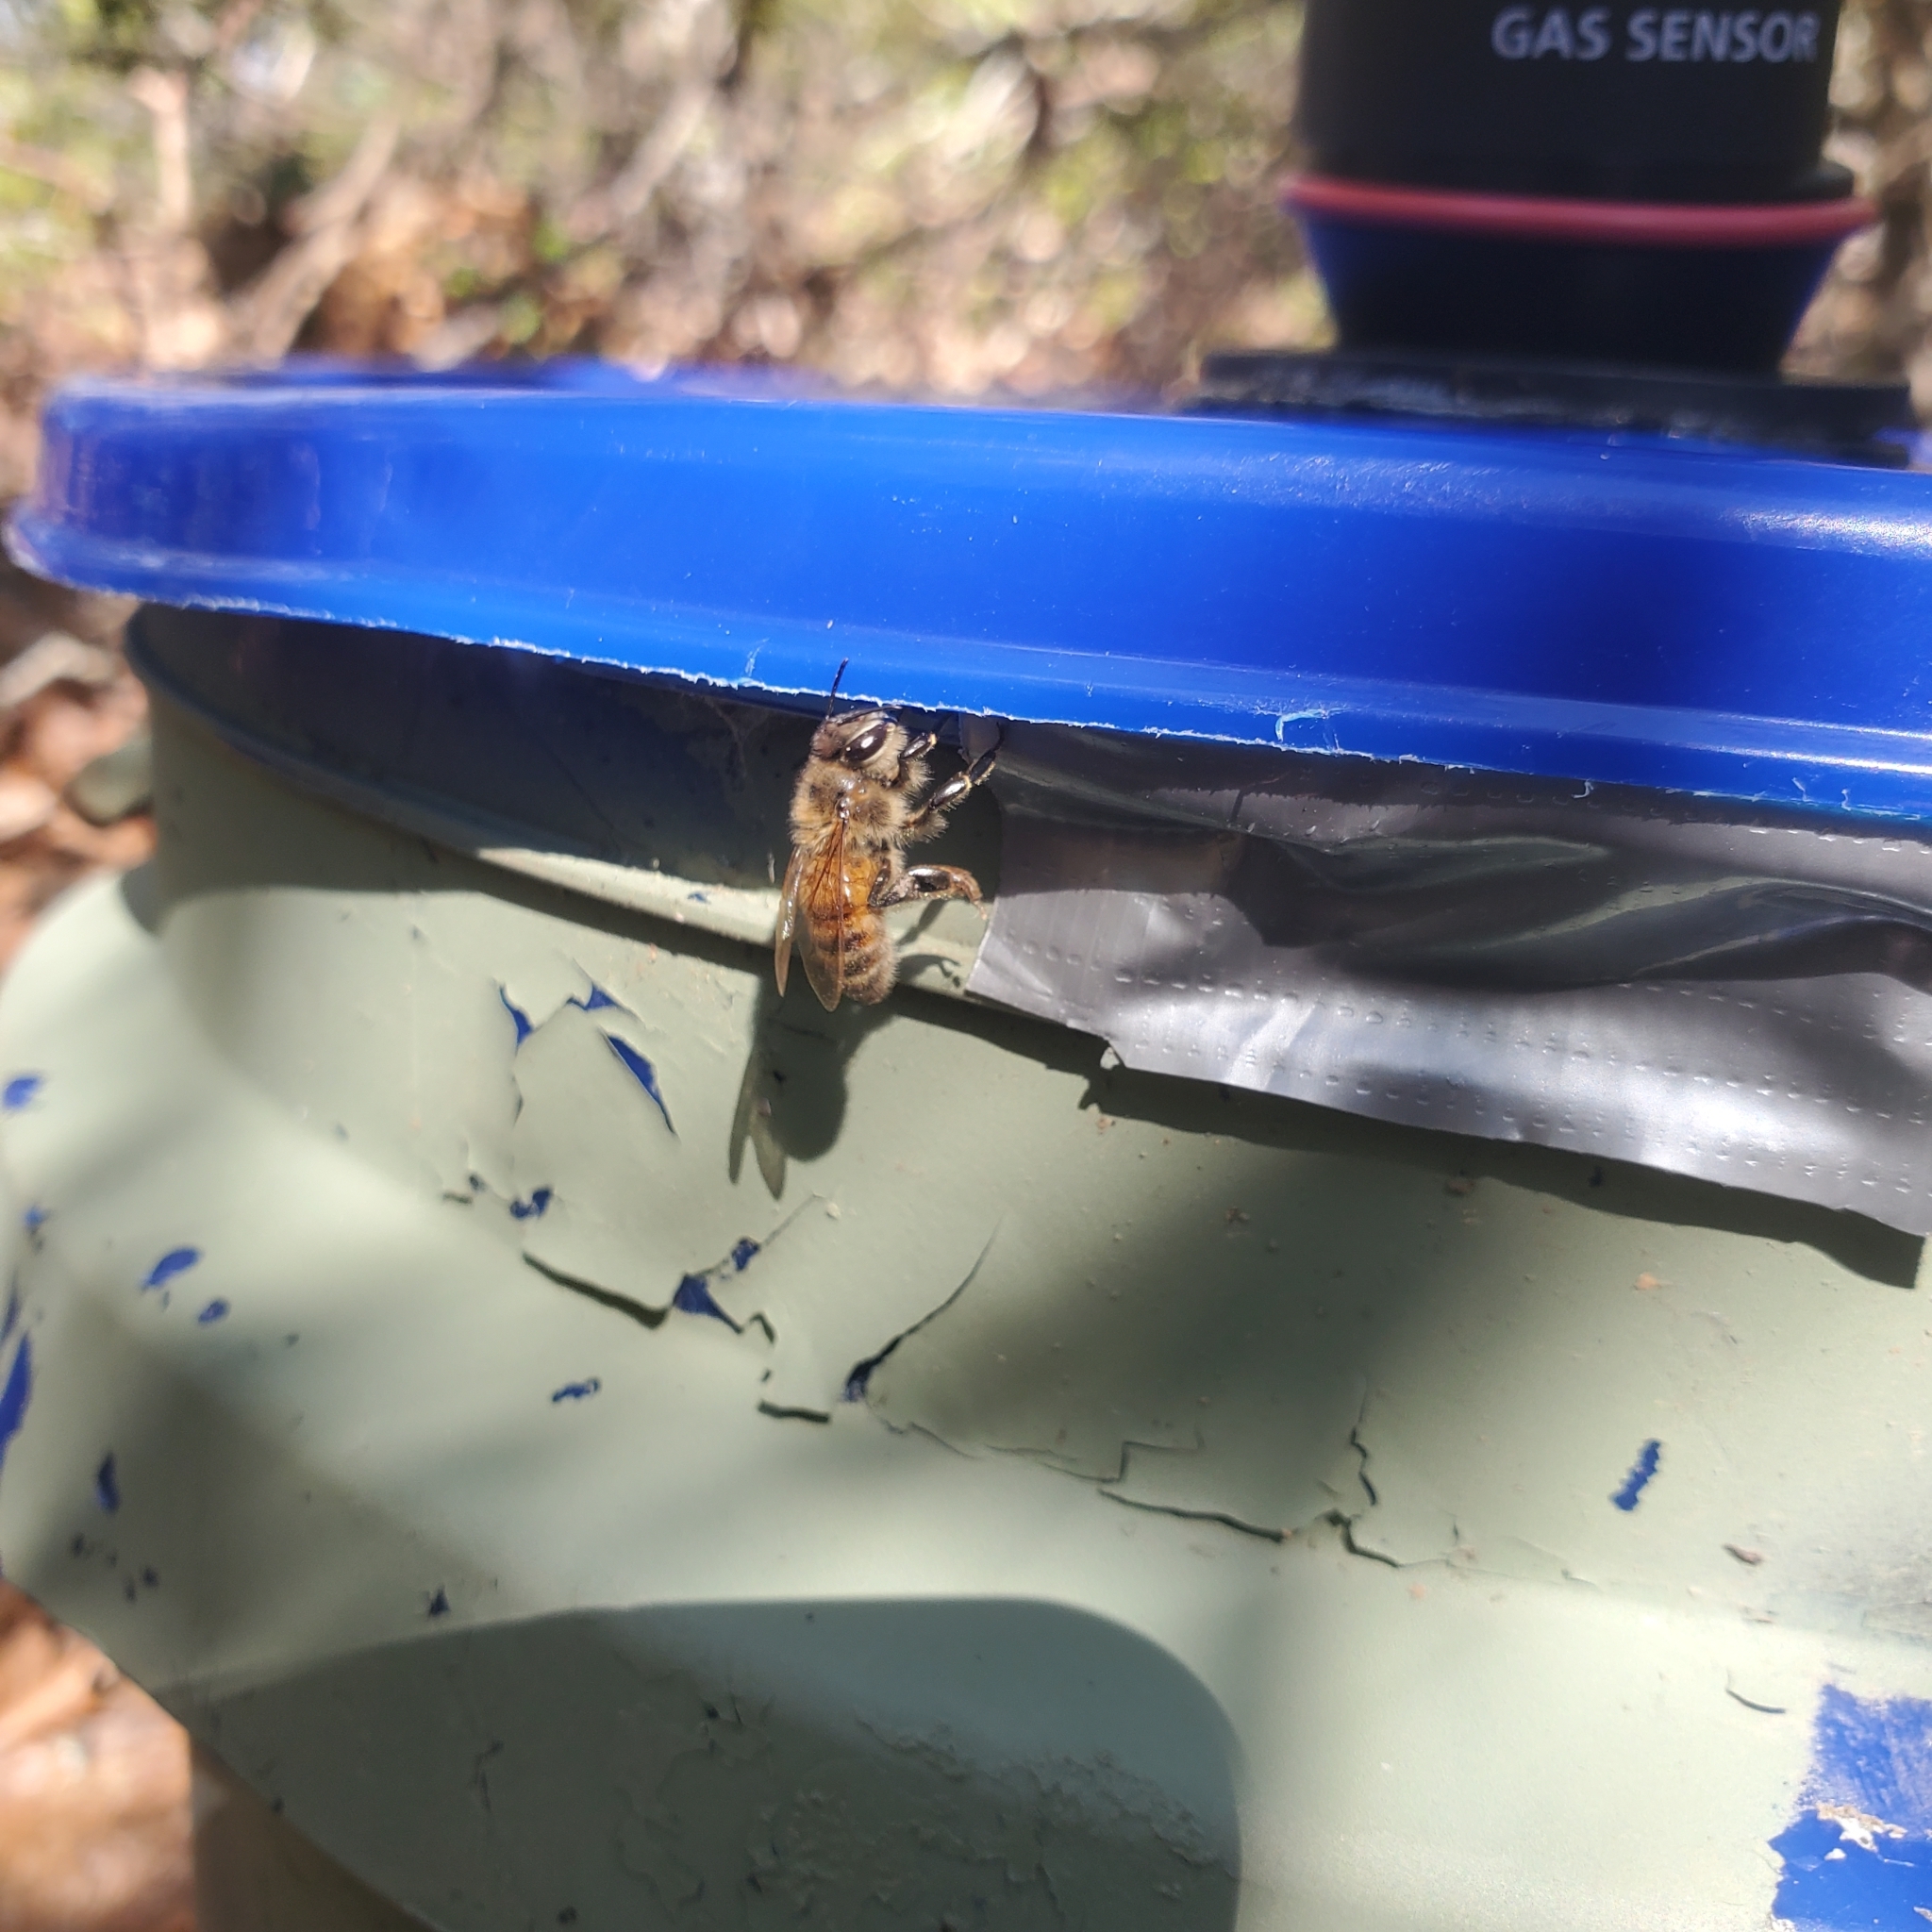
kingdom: Animalia
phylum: Arthropoda
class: Insecta
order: Hymenoptera
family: Apidae
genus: Apis
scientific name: Apis mellifera
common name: Honey bee
